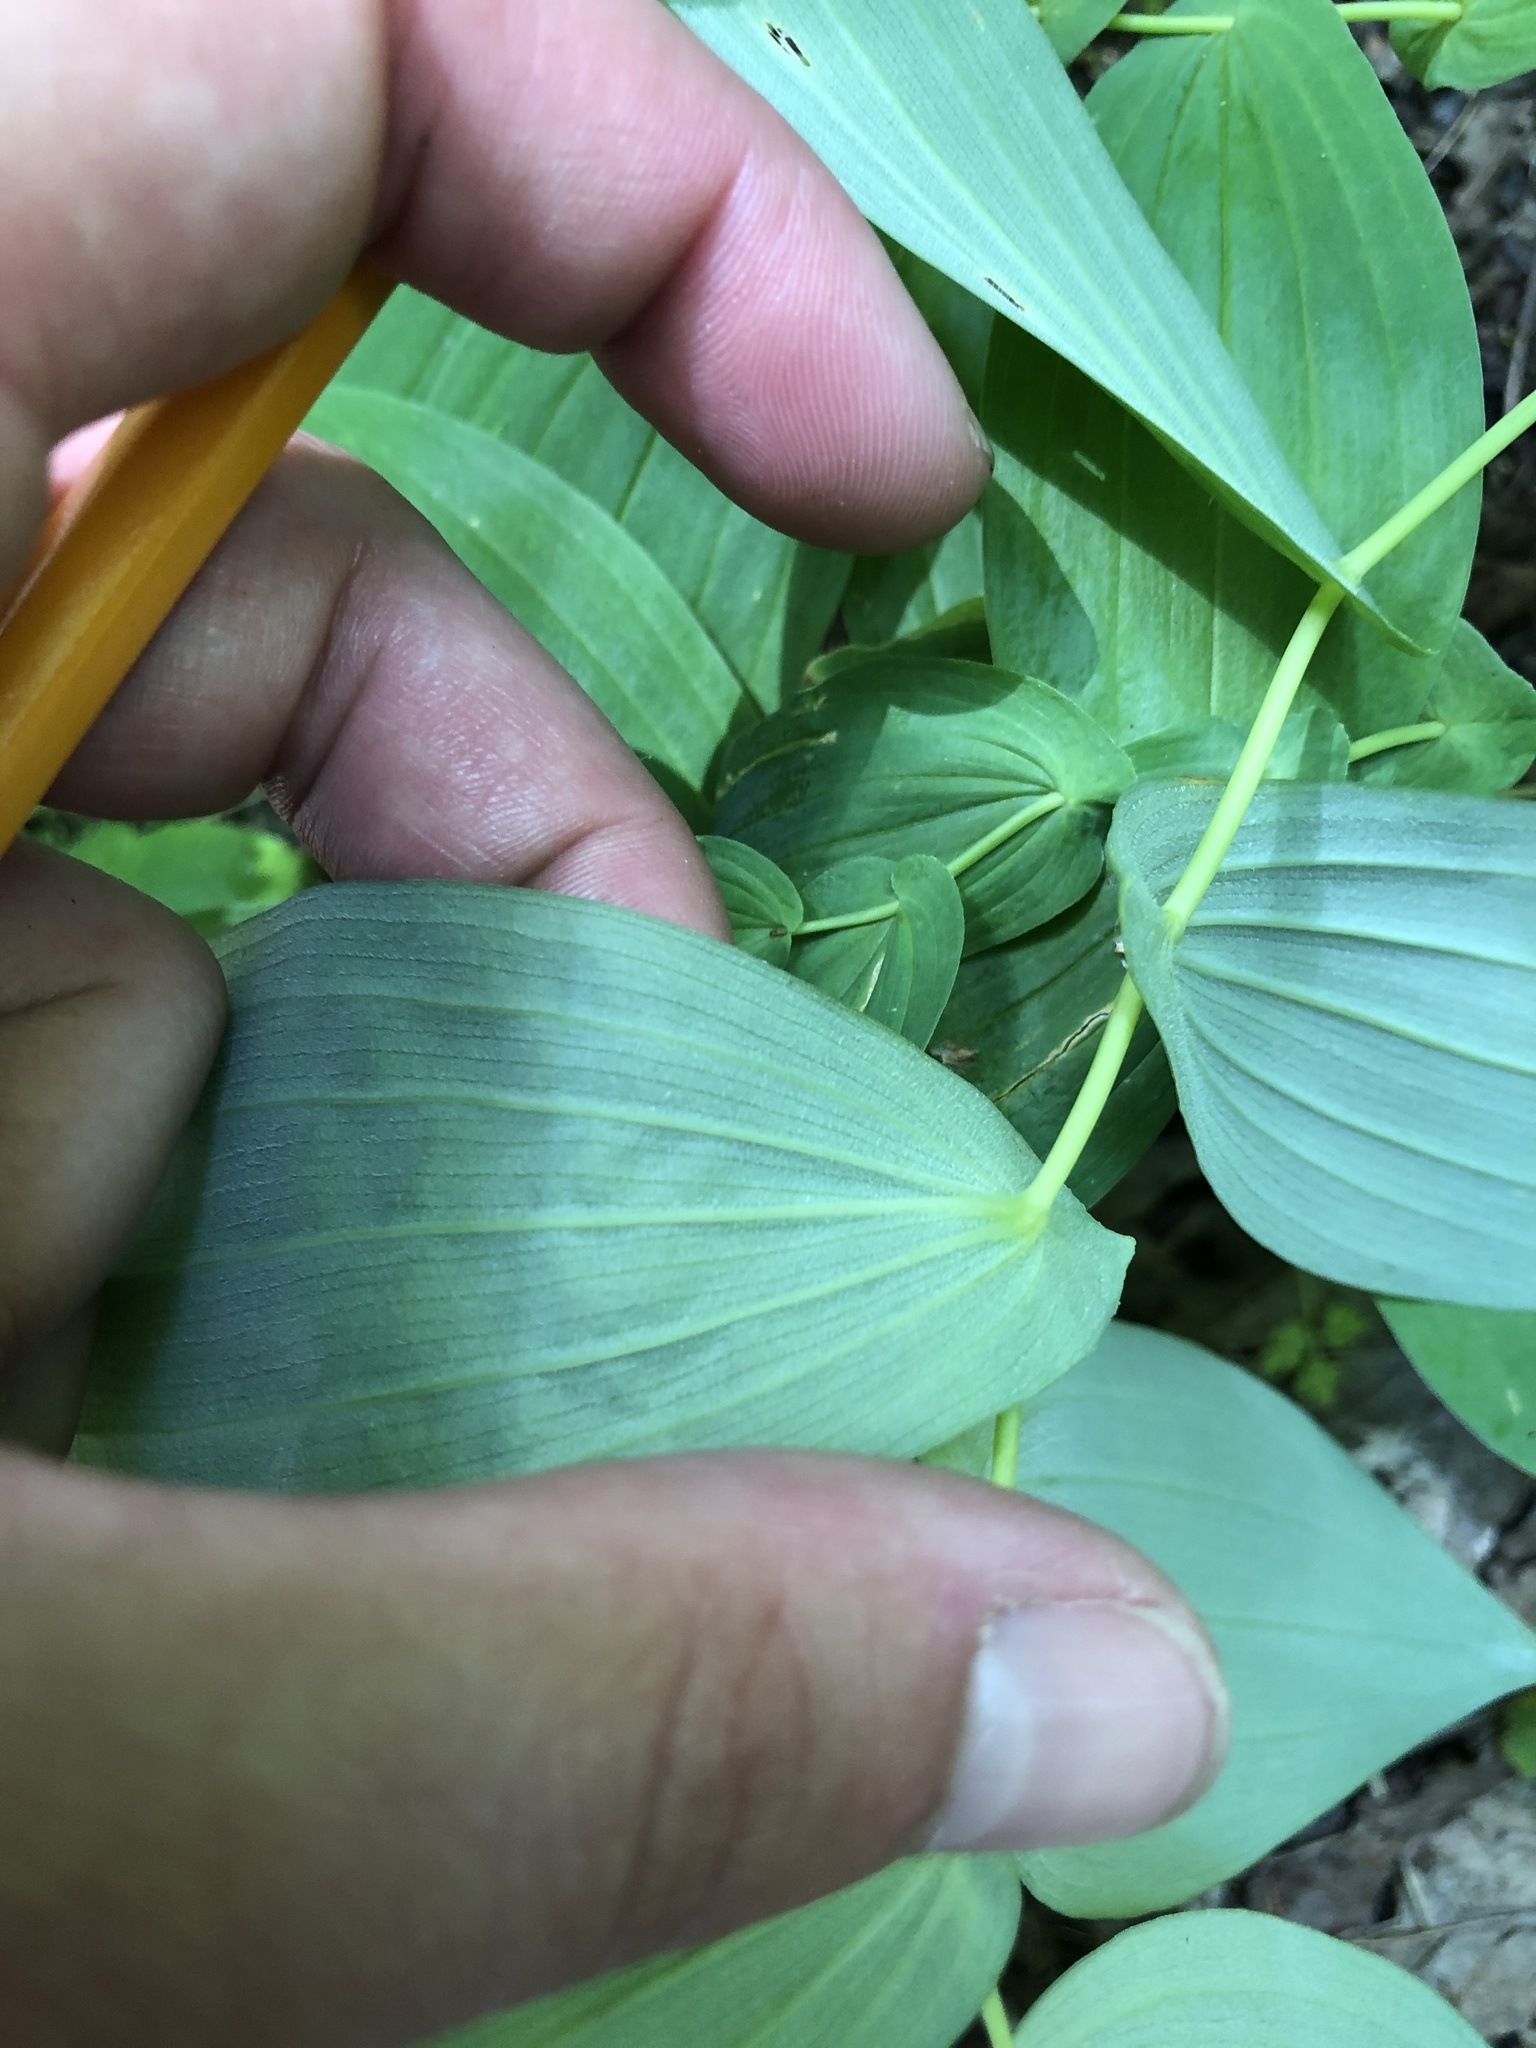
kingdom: Plantae
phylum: Tracheophyta
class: Liliopsida
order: Liliales
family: Colchicaceae
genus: Uvularia
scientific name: Uvularia grandiflora
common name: Bellwort
